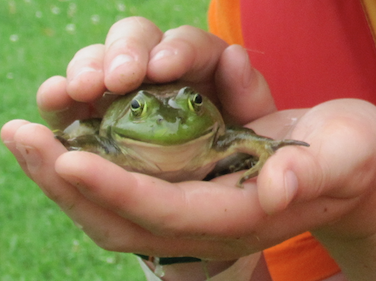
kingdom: Animalia
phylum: Chordata
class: Amphibia
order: Anura
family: Ranidae
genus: Lithobates
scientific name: Lithobates catesbeianus
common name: American bullfrog
